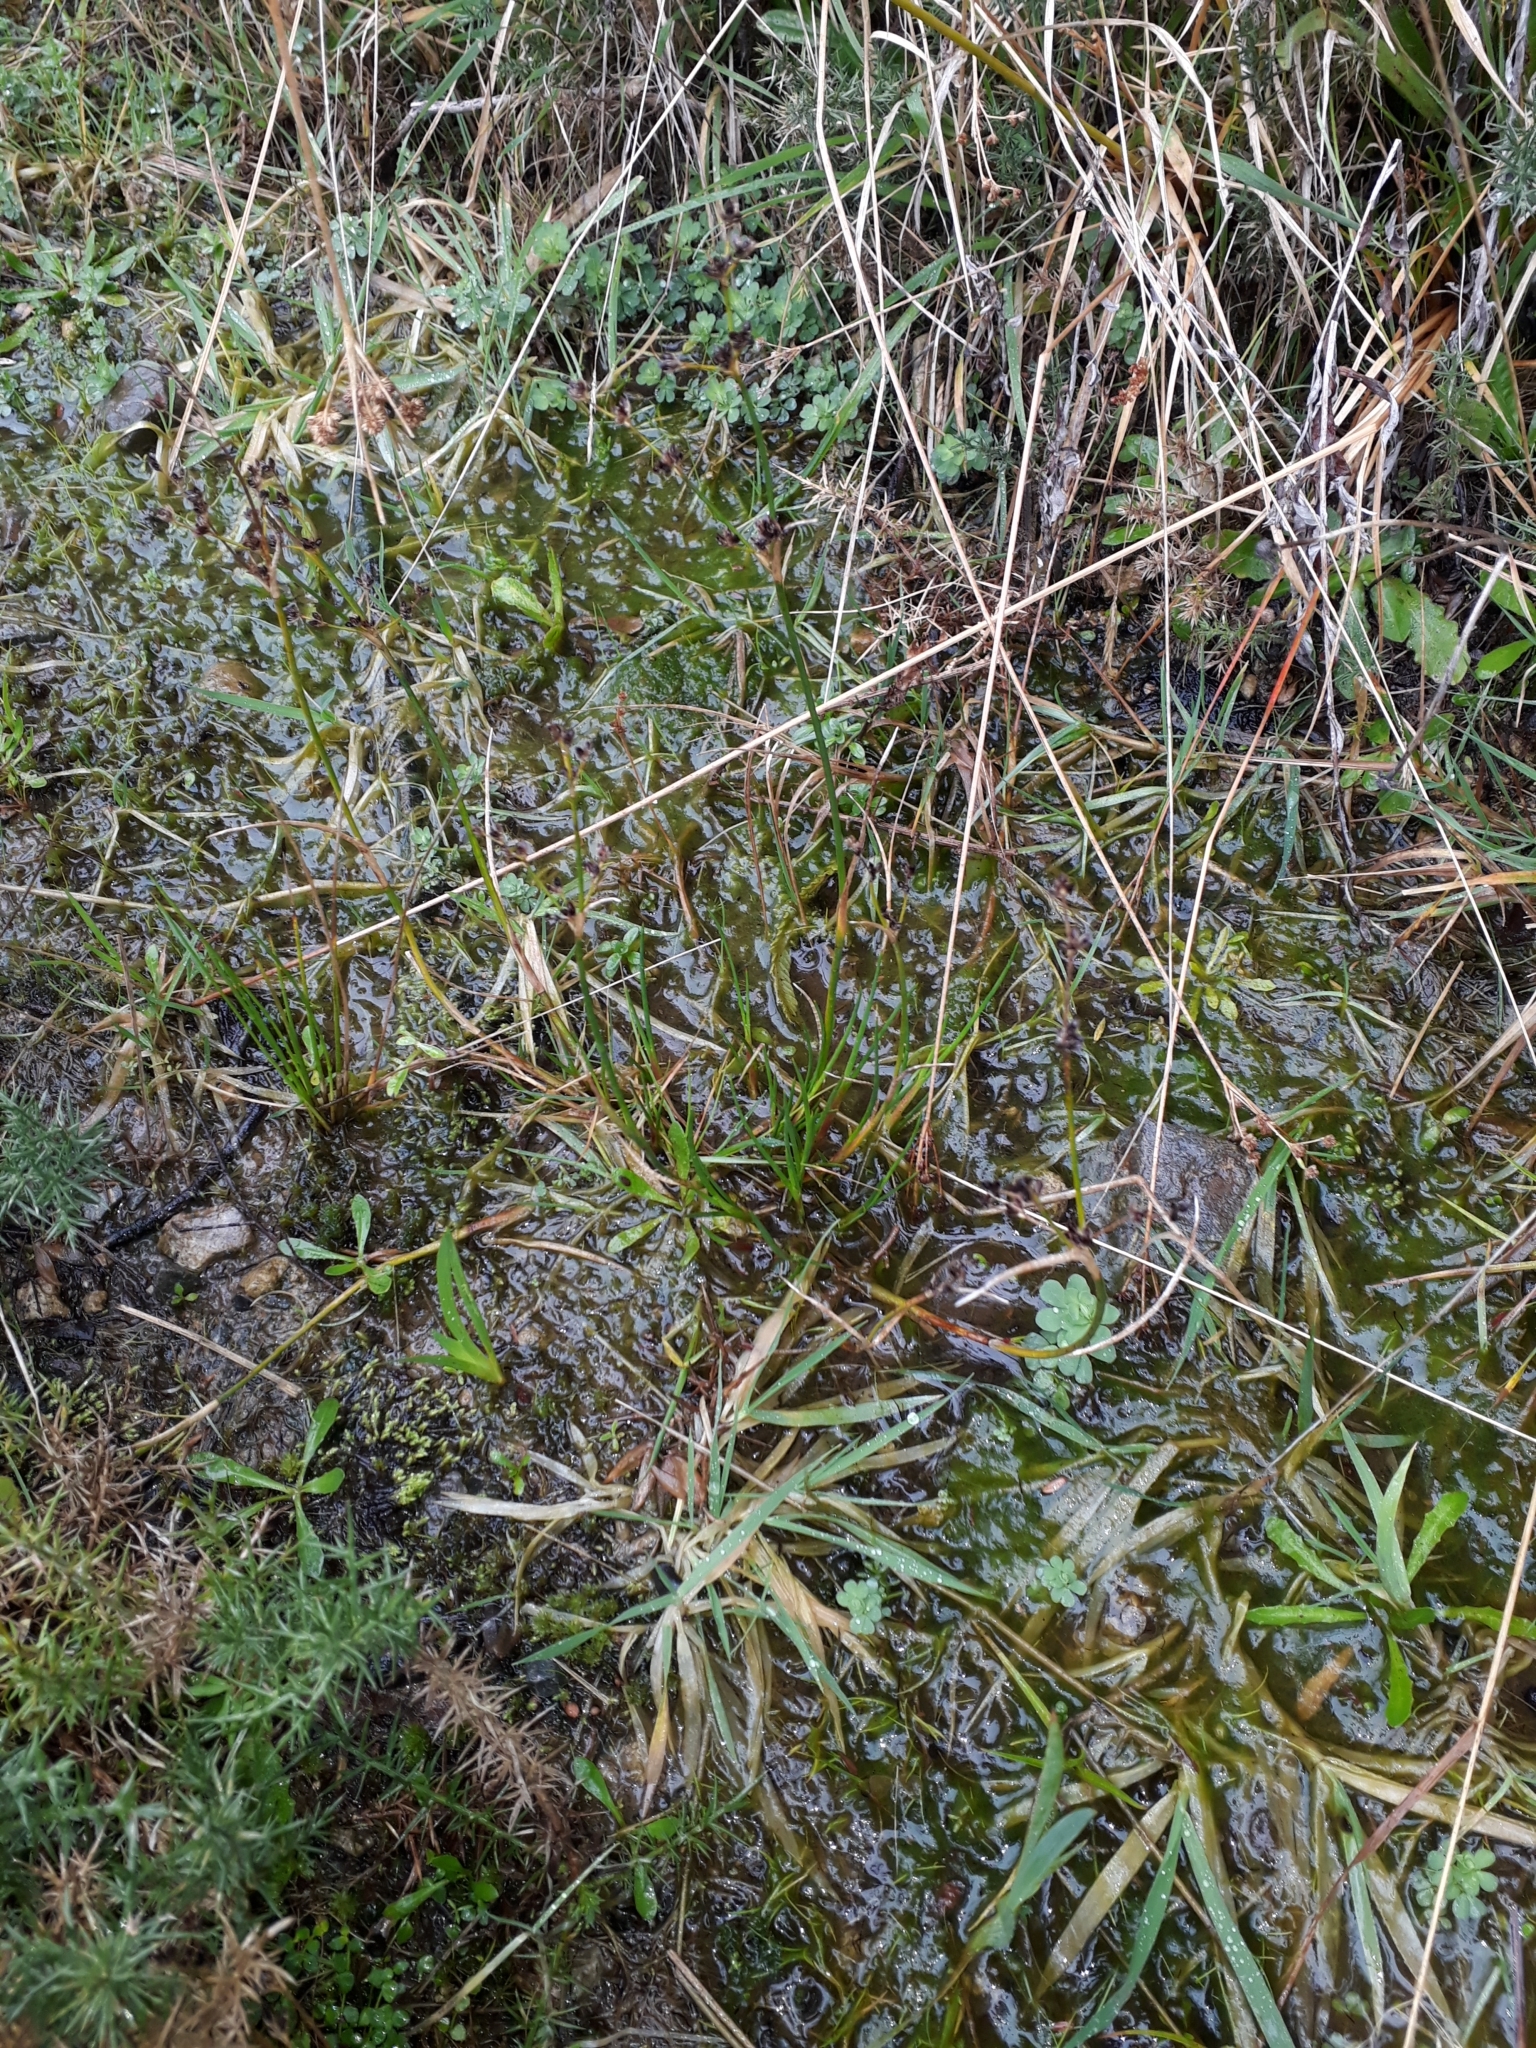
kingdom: Plantae
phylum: Tracheophyta
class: Liliopsida
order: Poales
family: Juncaceae
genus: Juncus
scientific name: Juncus articulatus
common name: Jointed rush
